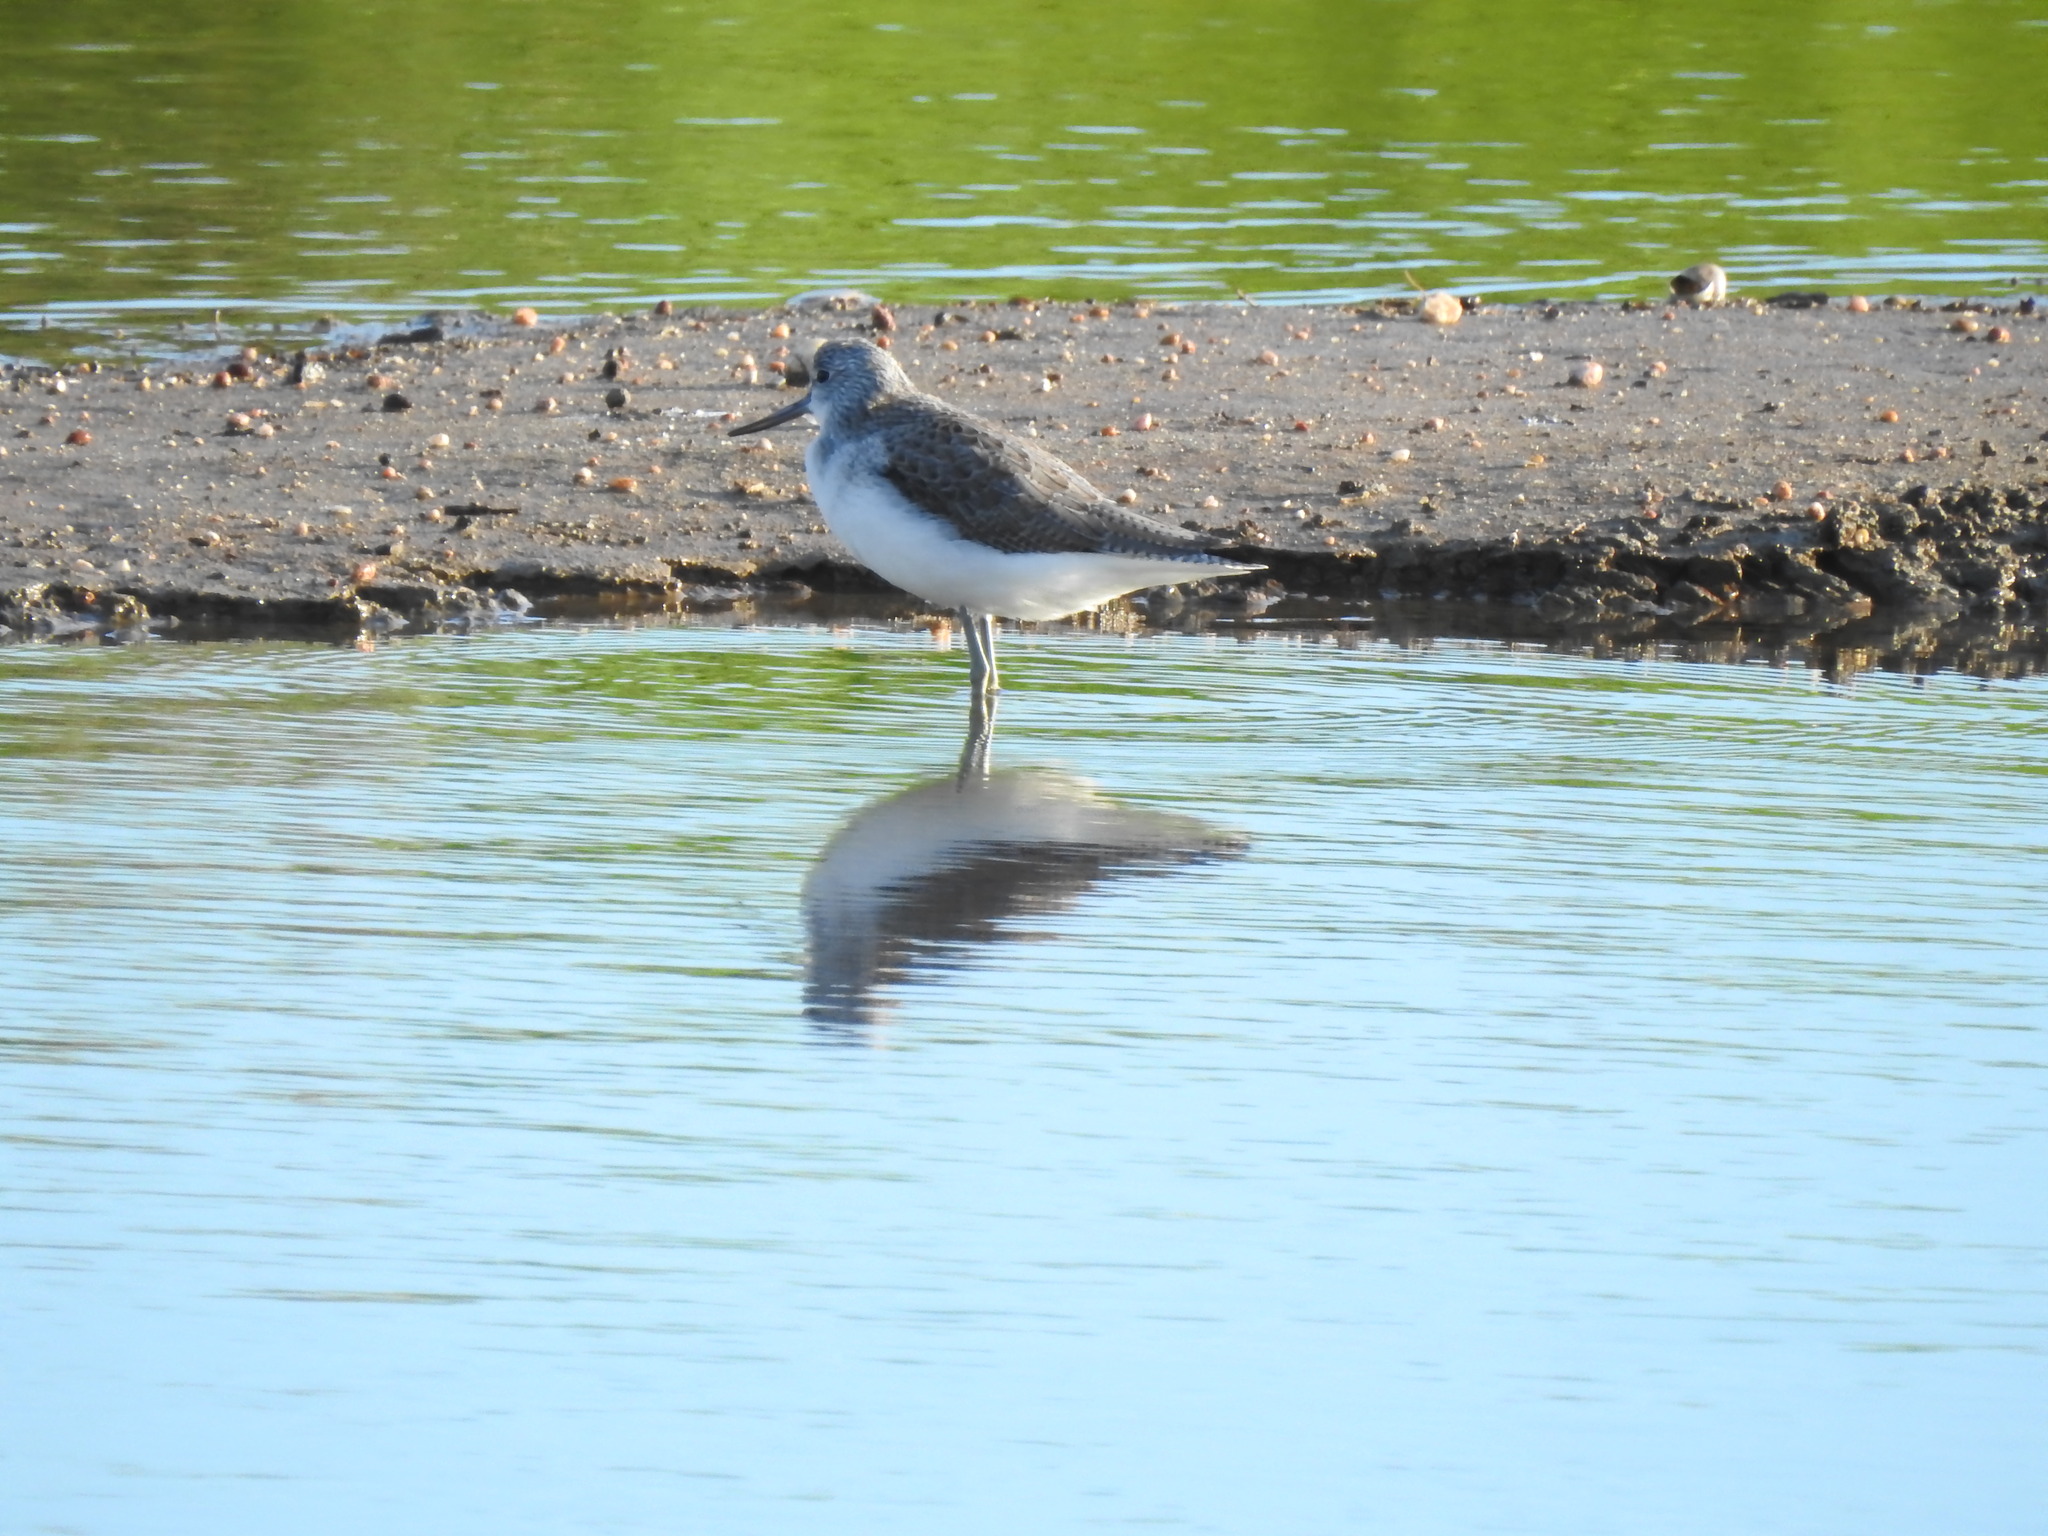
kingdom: Animalia
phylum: Chordata
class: Aves
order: Charadriiformes
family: Scolopacidae
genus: Tringa
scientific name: Tringa nebularia
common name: Common greenshank
